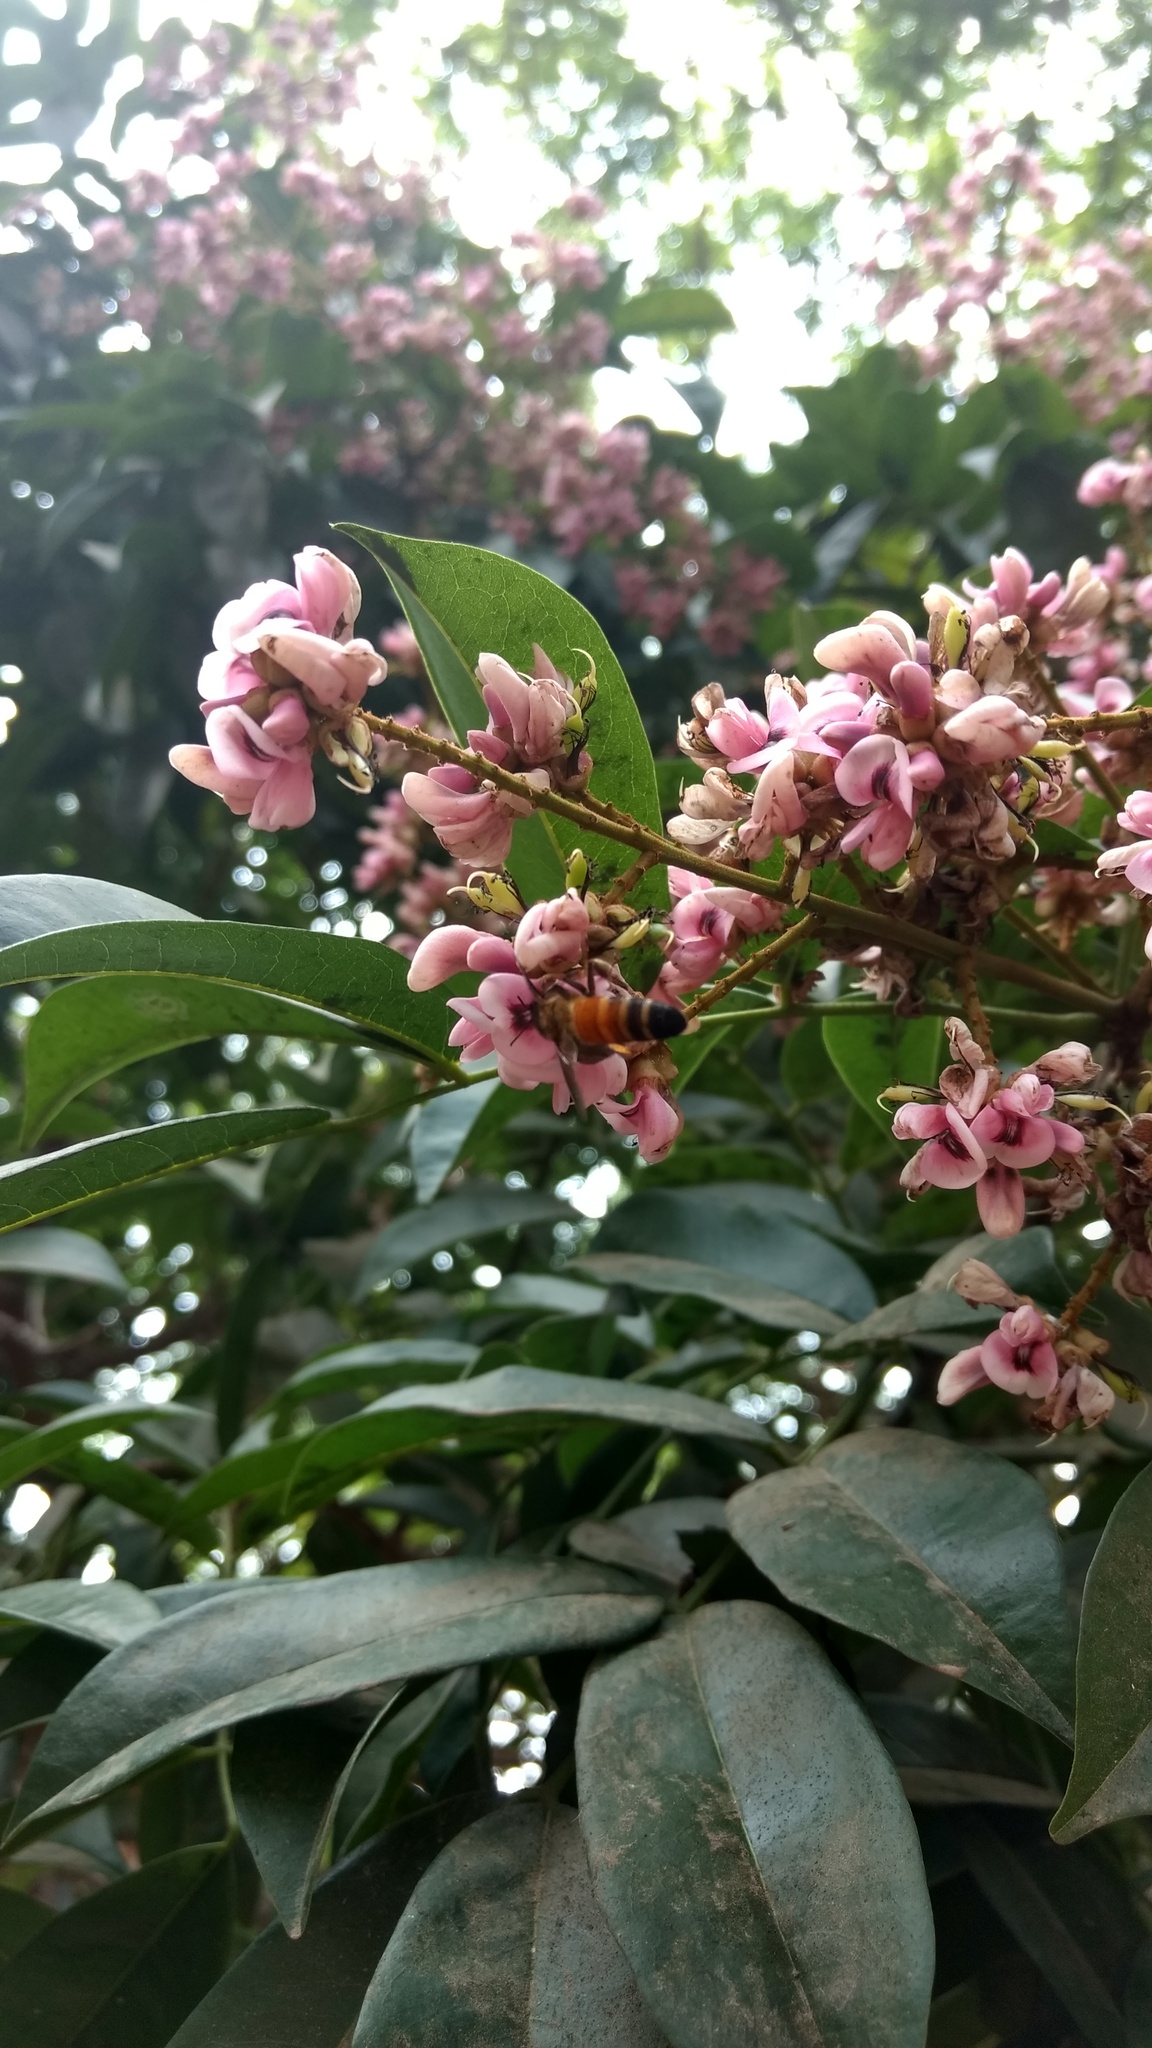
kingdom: Plantae
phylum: Tracheophyta
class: Magnoliopsida
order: Fabales
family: Fabaceae
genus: Andira
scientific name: Andira inermis
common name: Angelin
